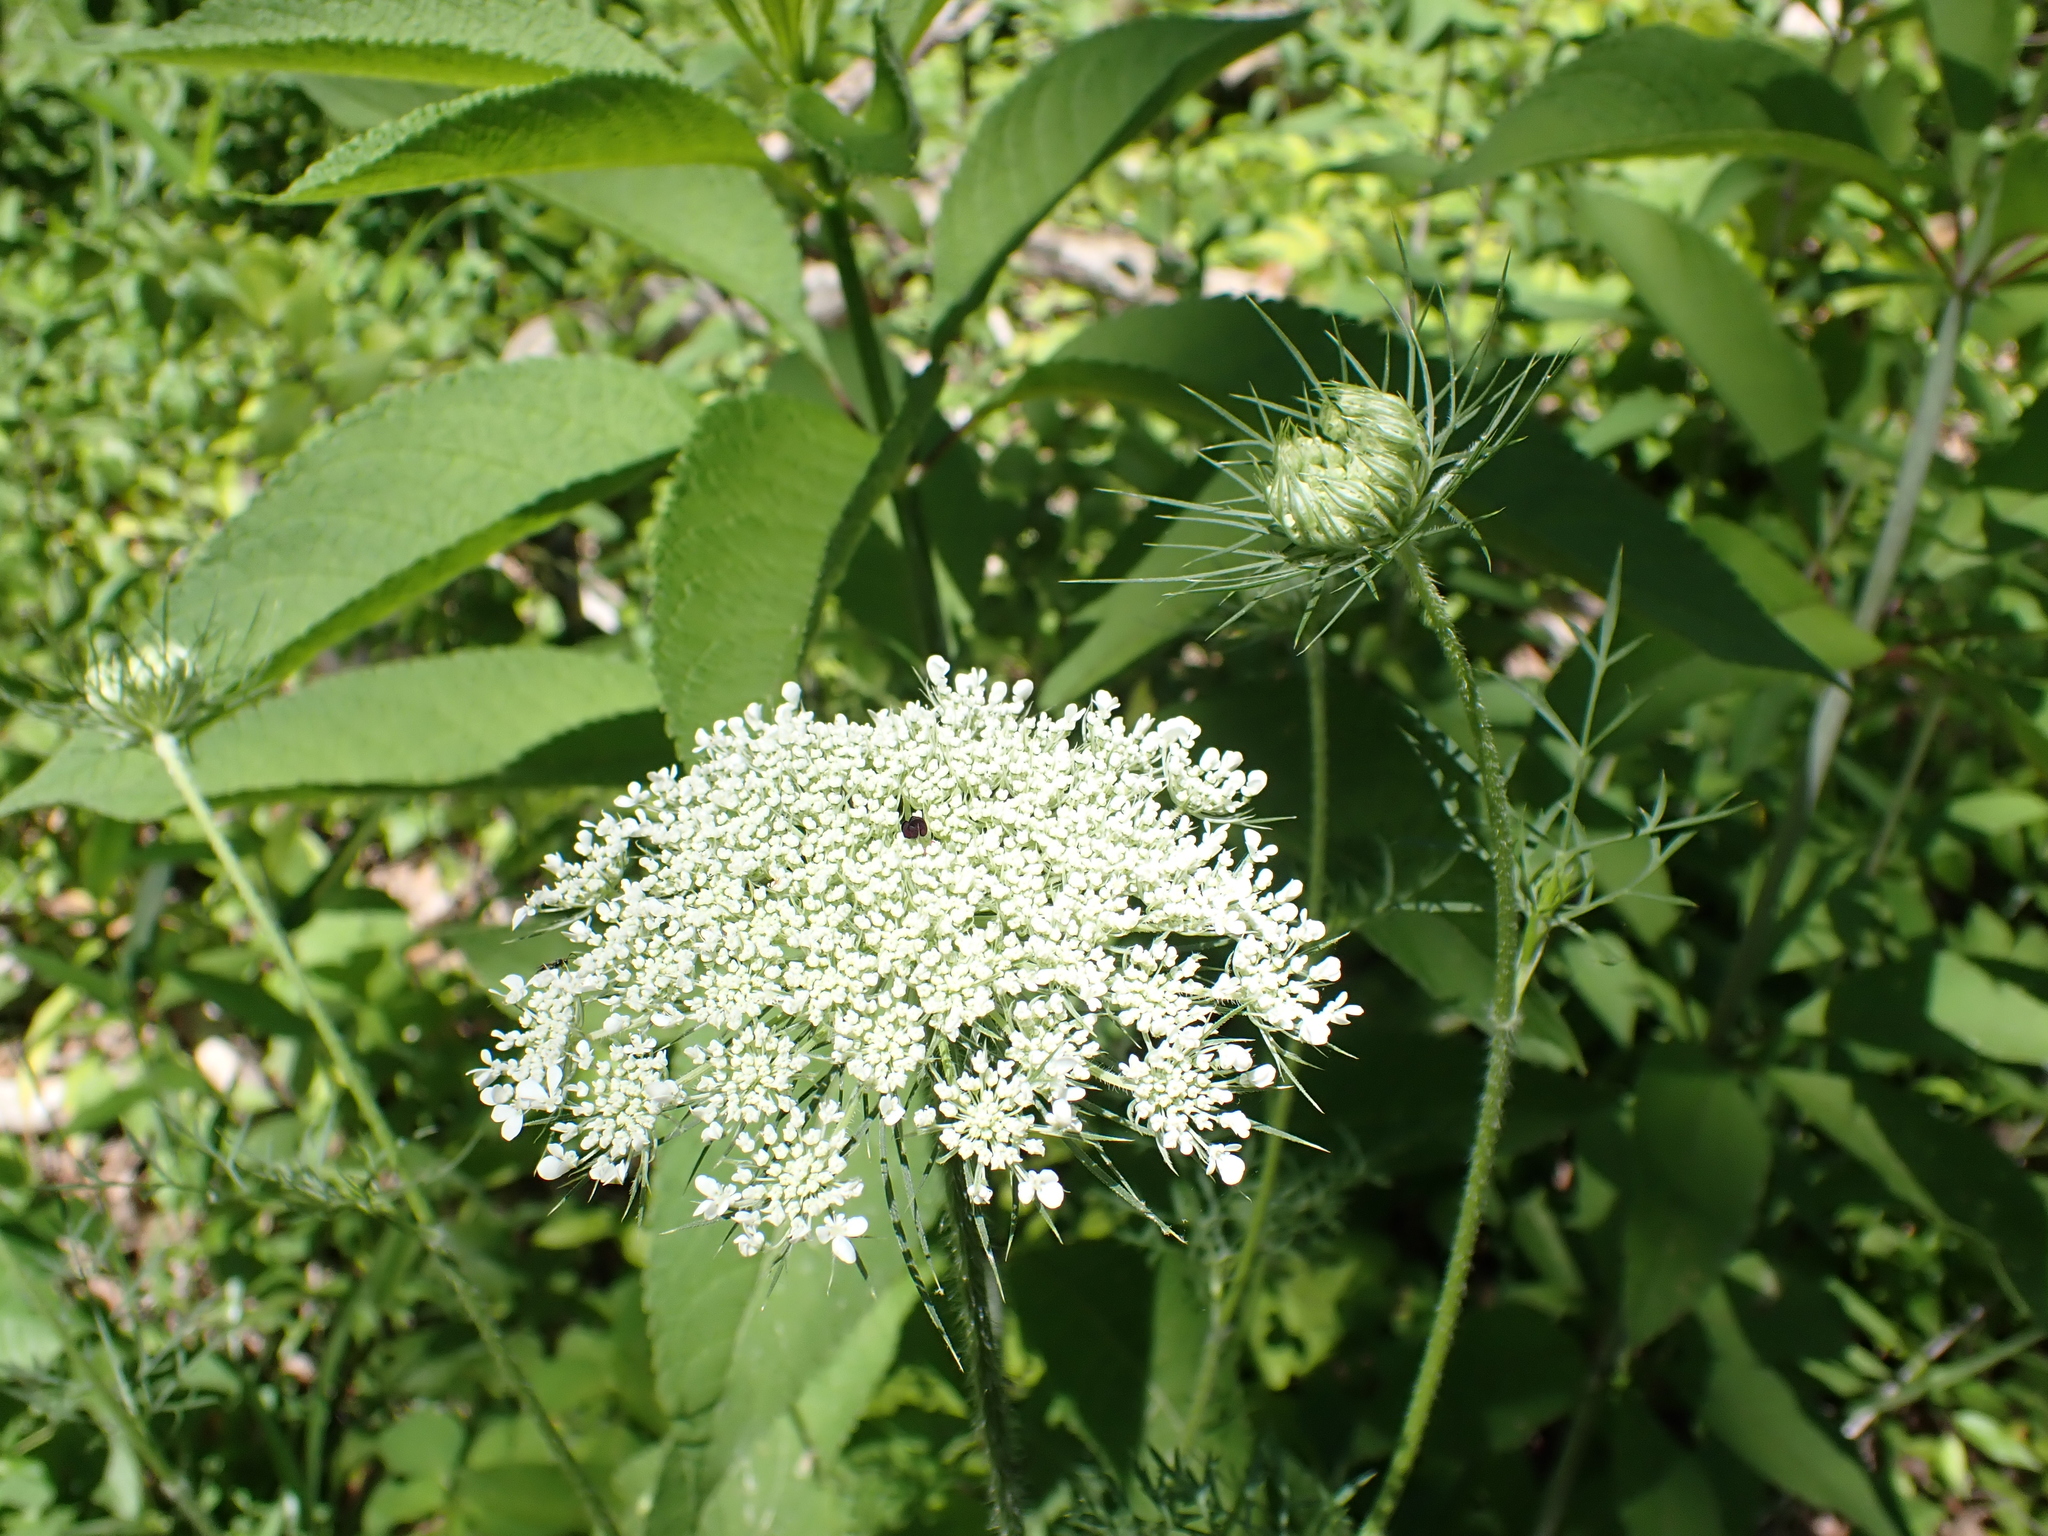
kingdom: Plantae
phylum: Tracheophyta
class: Magnoliopsida
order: Apiales
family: Apiaceae
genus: Daucus
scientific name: Daucus carota
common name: Wild carrot
